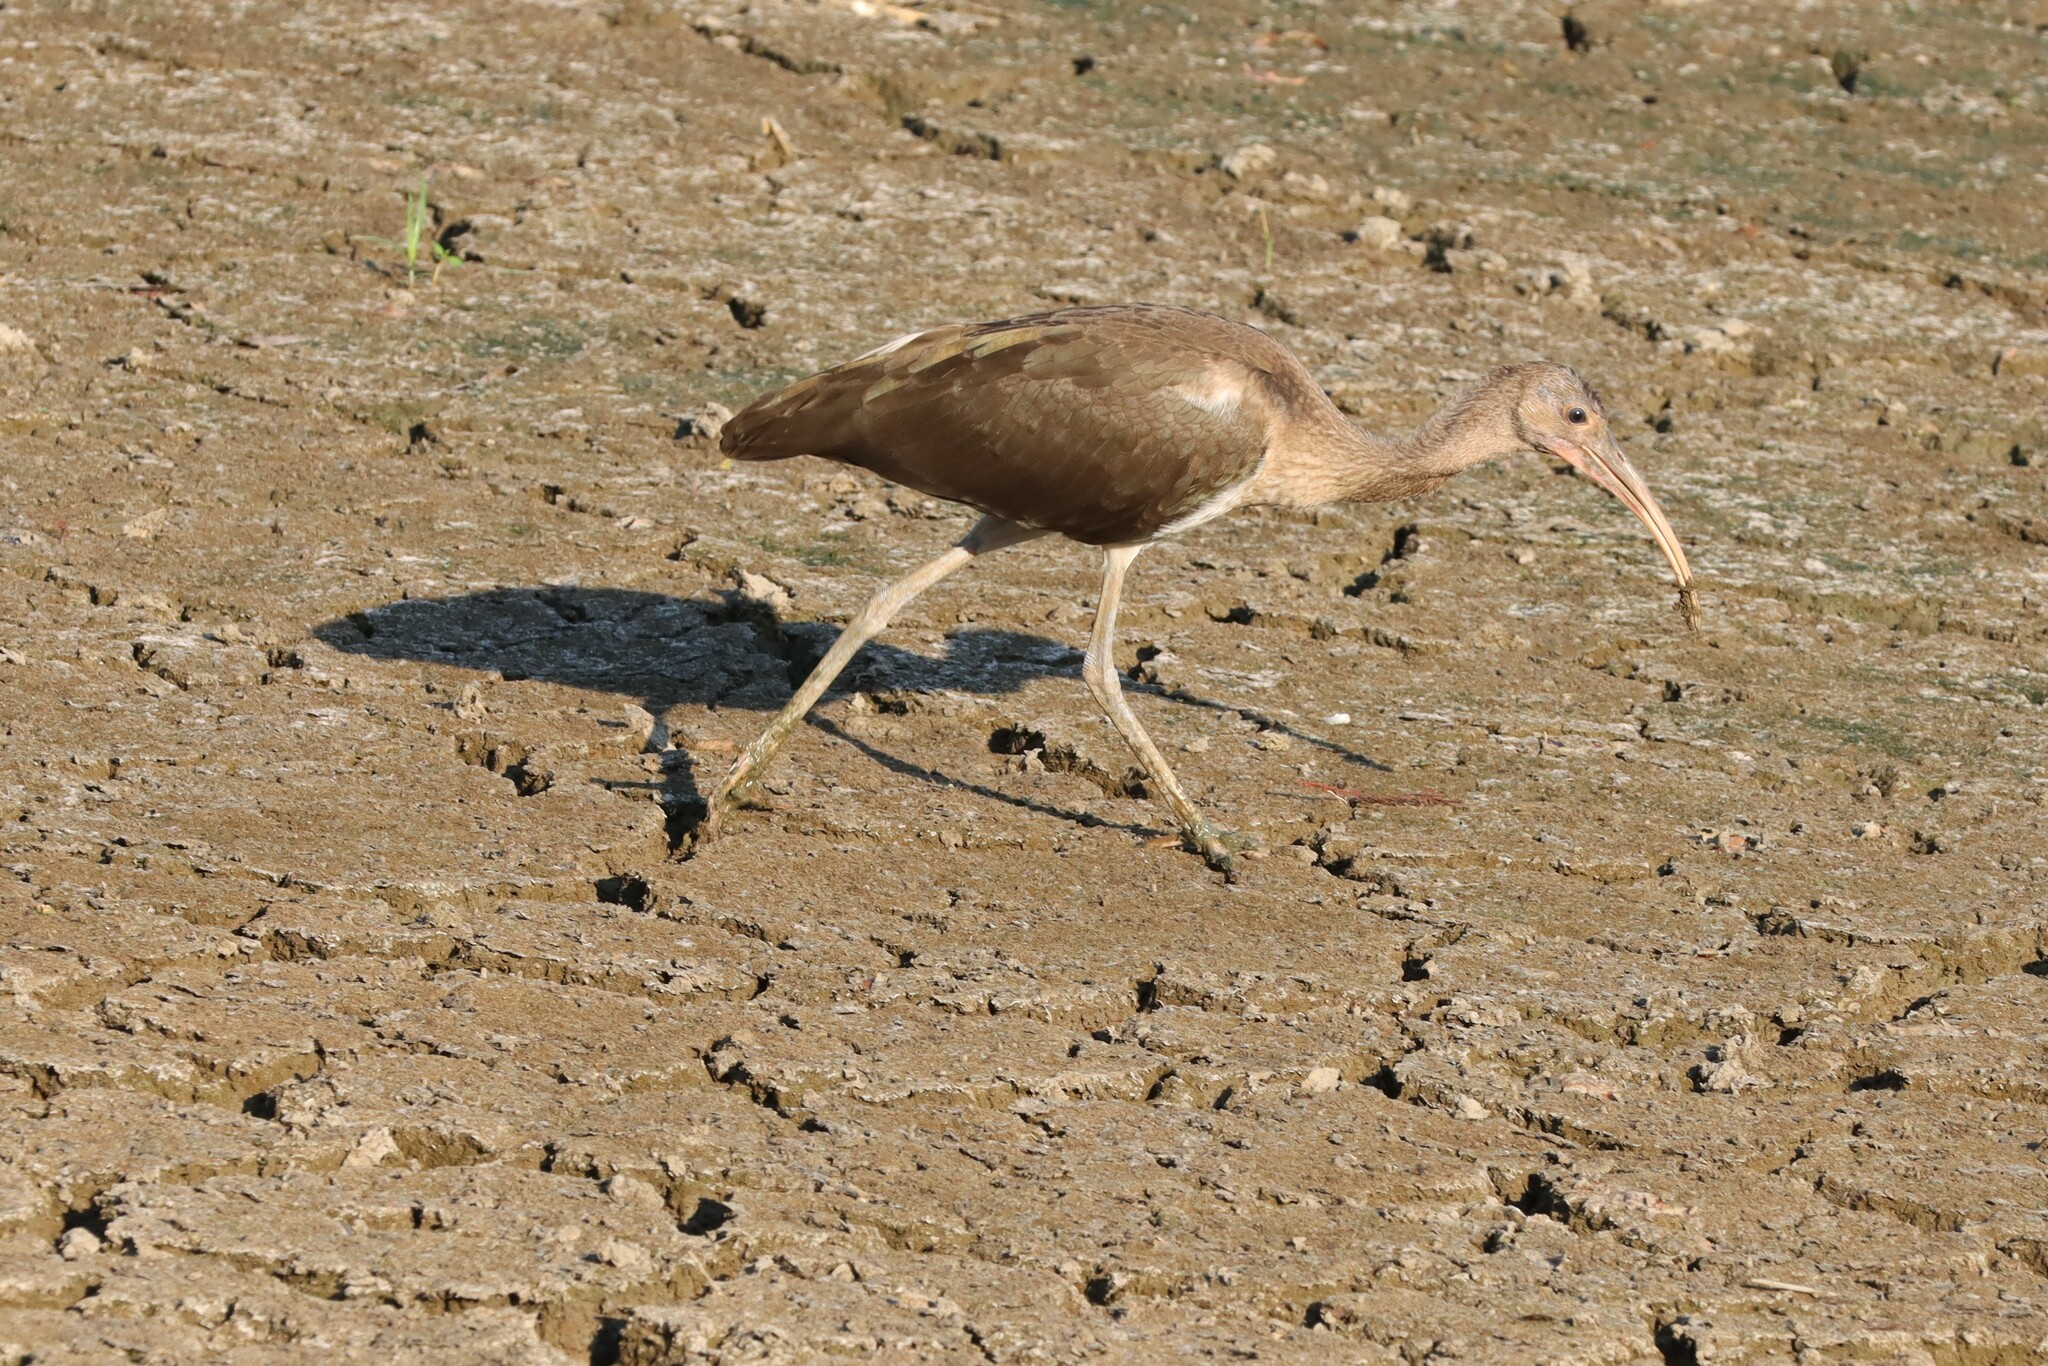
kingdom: Animalia
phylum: Chordata
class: Aves
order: Pelecaniformes
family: Threskiornithidae
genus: Eudocimus
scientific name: Eudocimus albus
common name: White ibis
